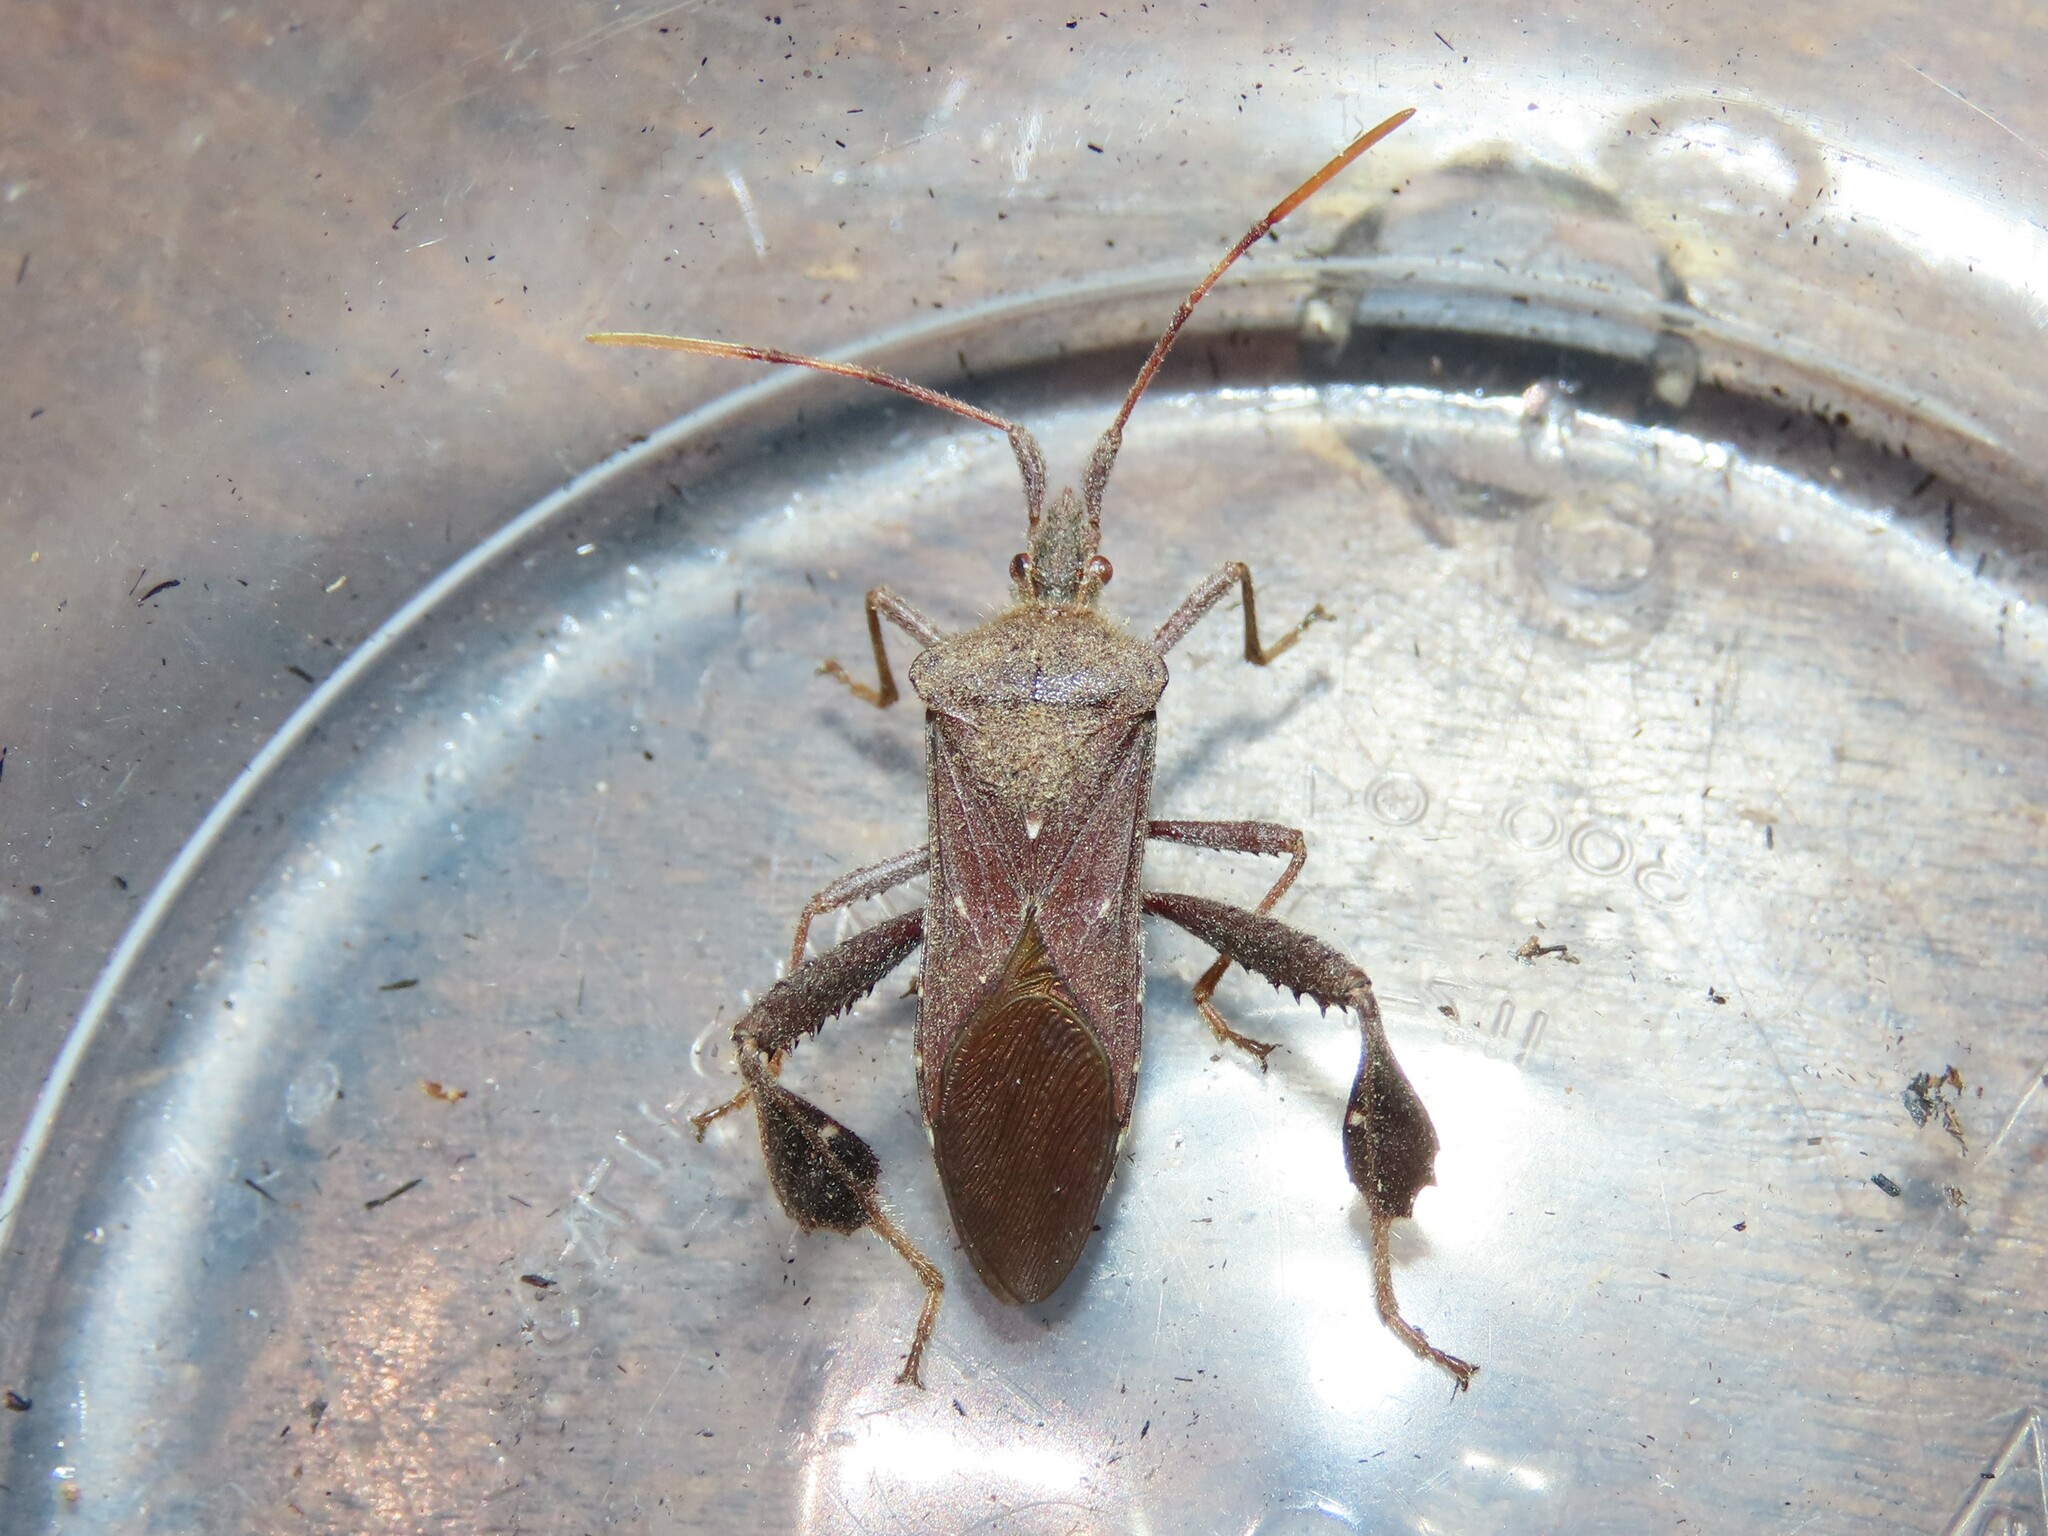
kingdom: Animalia
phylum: Arthropoda
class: Insecta
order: Hemiptera
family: Coreidae
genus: Leptoglossus
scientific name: Leptoglossus oppositus
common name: Northern leaf-footed bug
